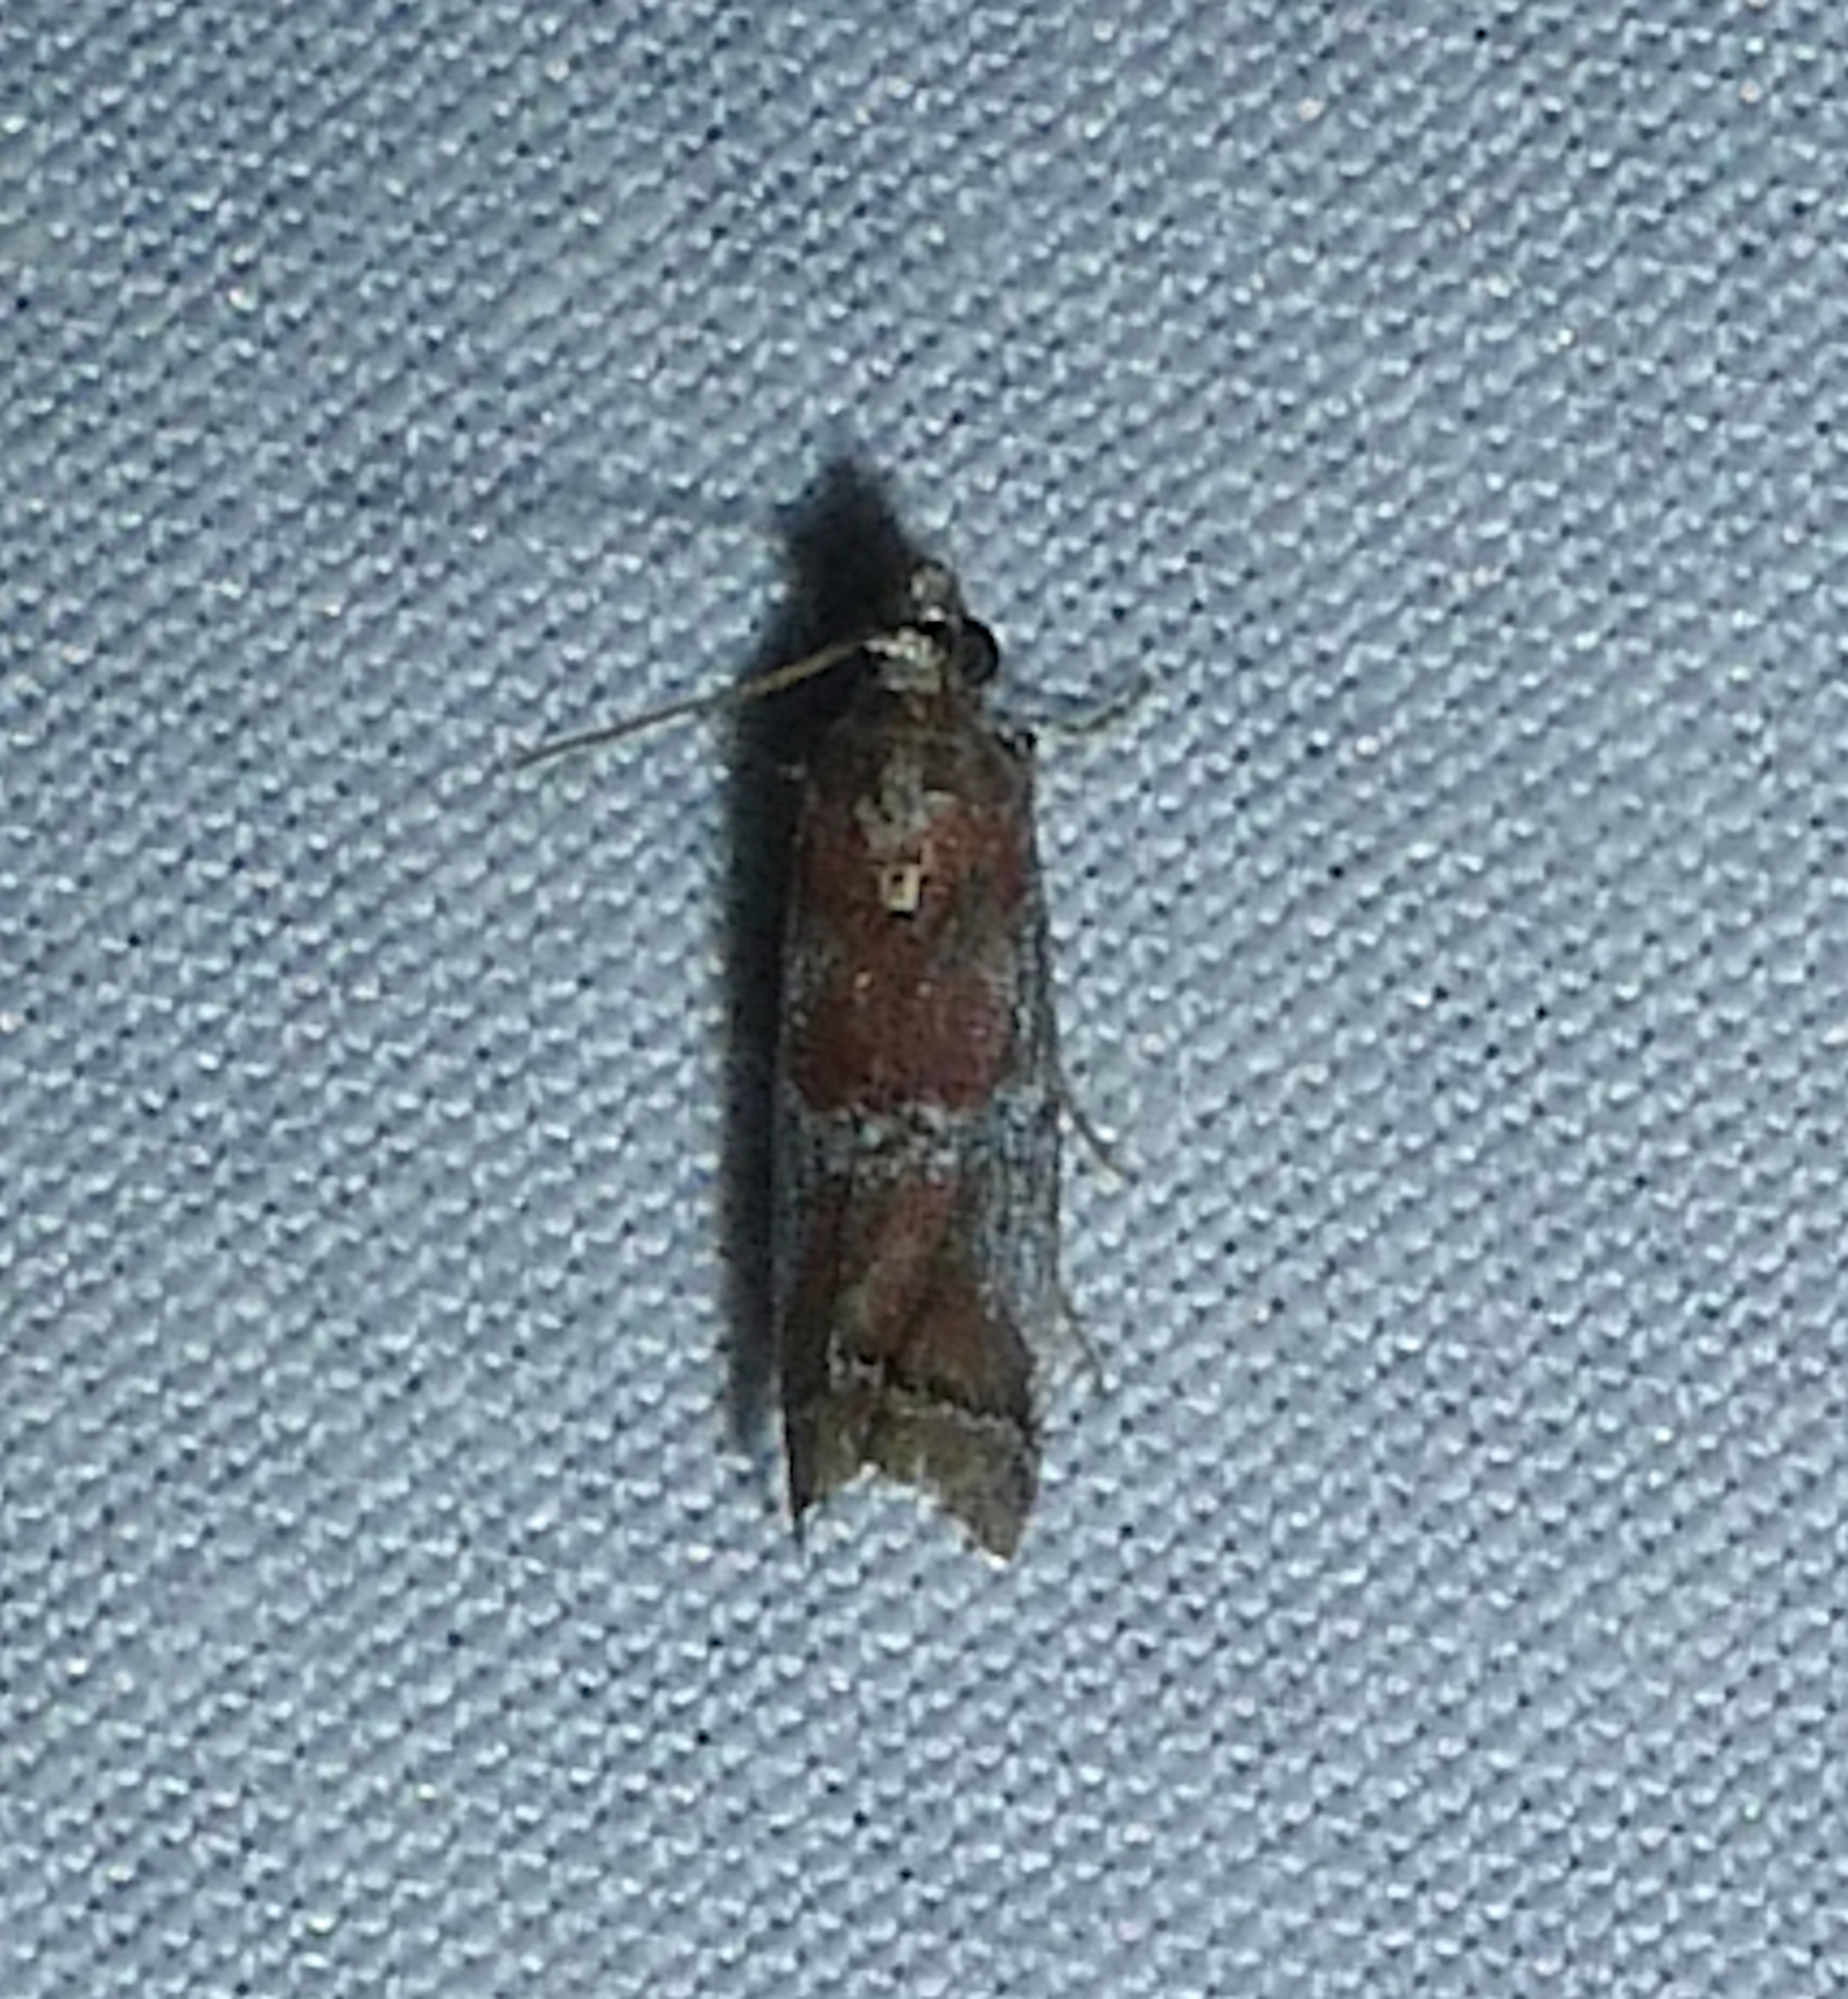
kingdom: Animalia
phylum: Arthropoda
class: Insecta
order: Lepidoptera
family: Pyralidae
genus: Salebriaria
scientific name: Salebriaria squamopalpiella
